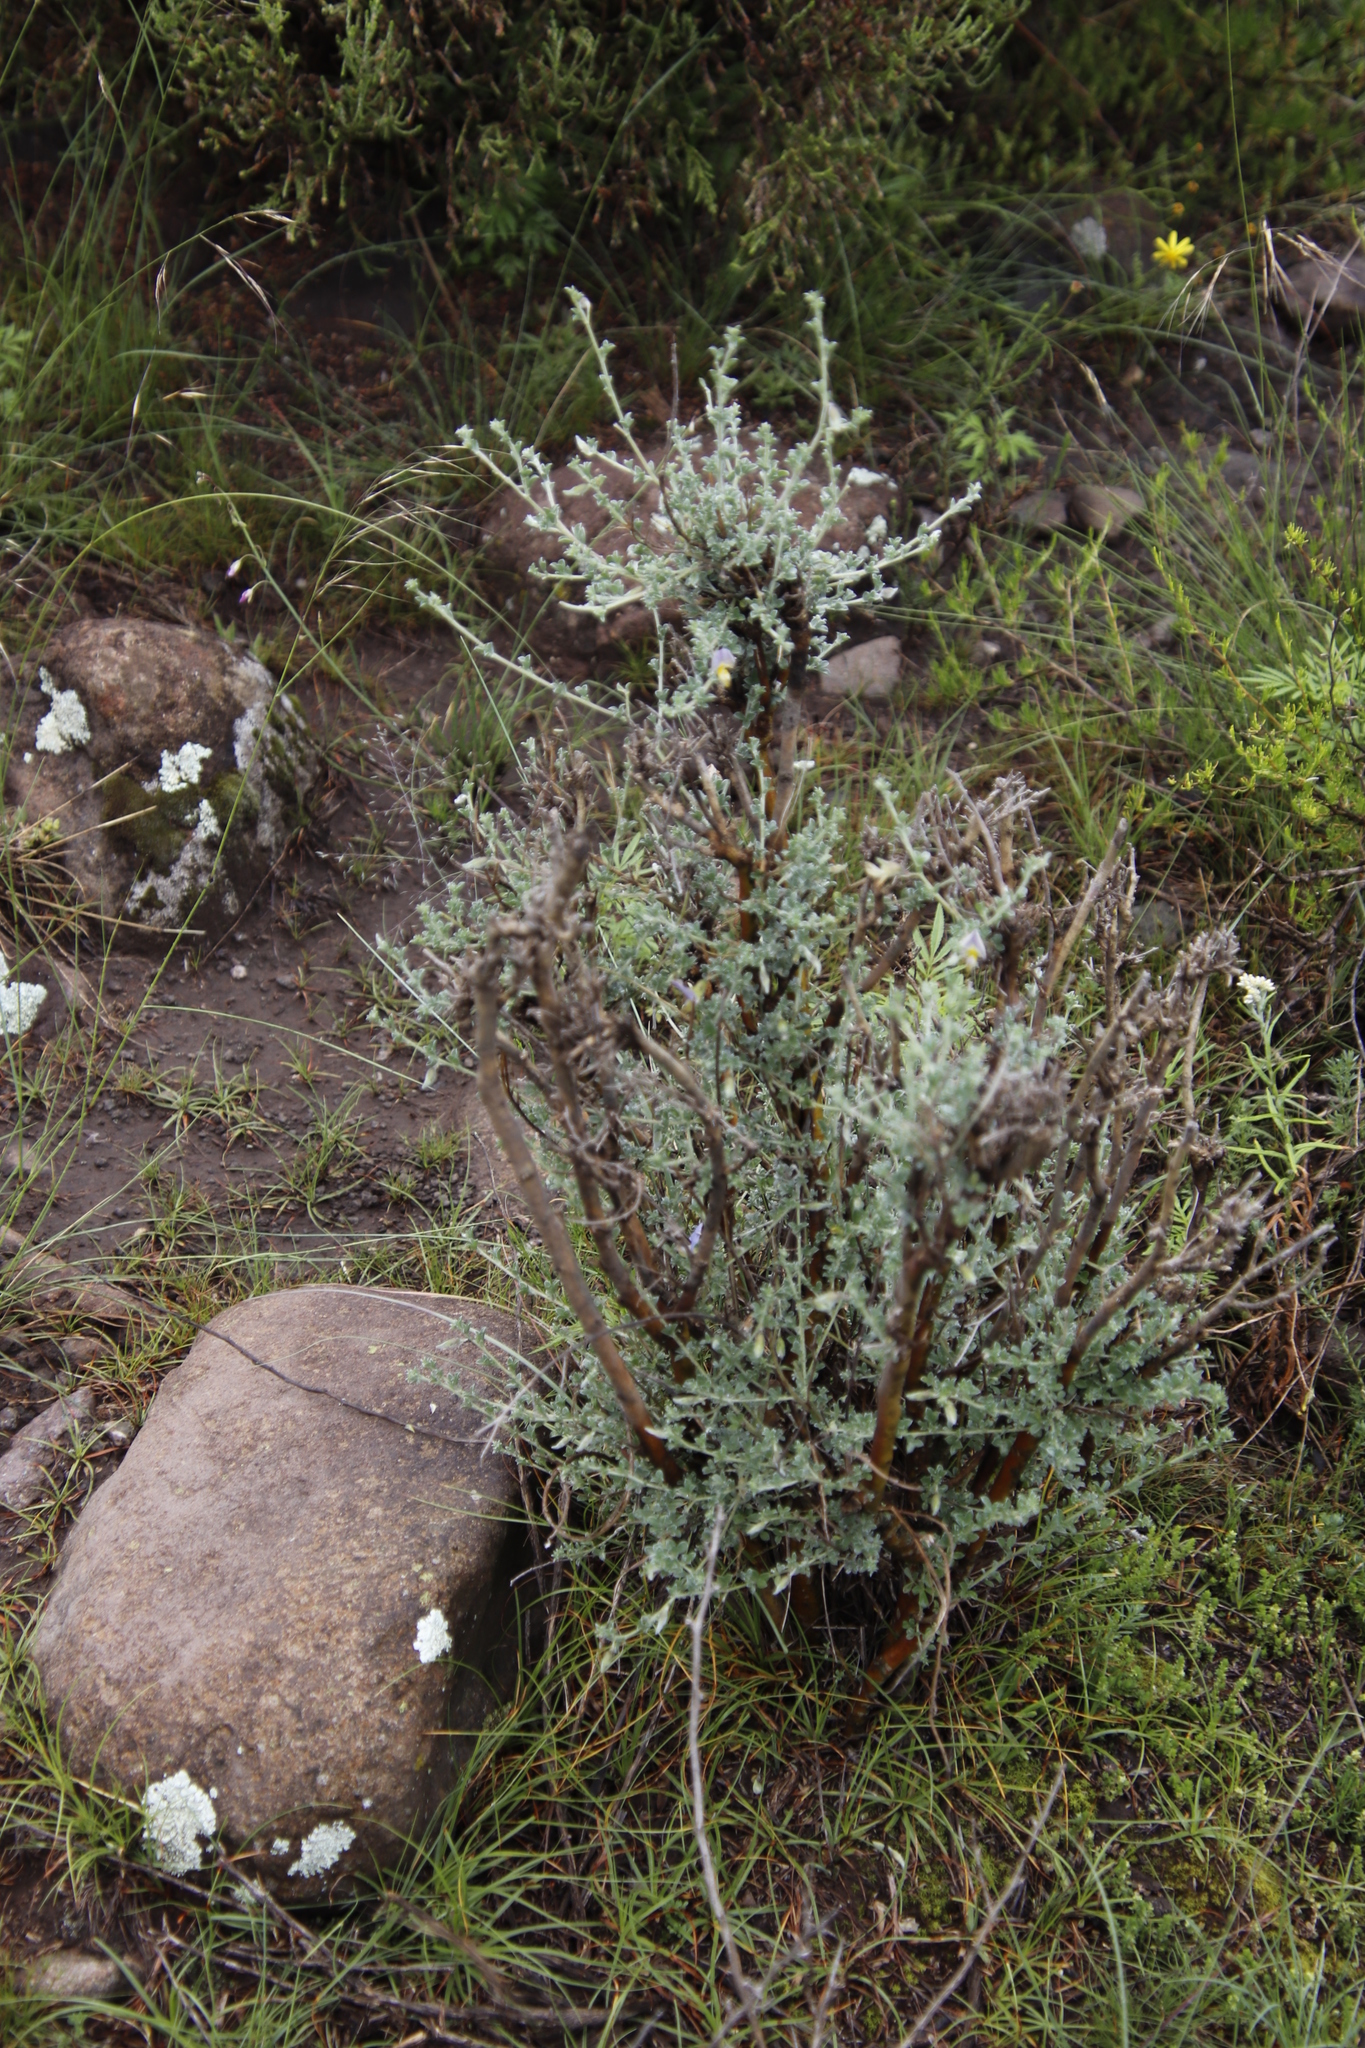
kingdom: Plantae
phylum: Tracheophyta
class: Magnoliopsida
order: Fabales
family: Fabaceae
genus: Lotononis
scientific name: Lotononis minor
